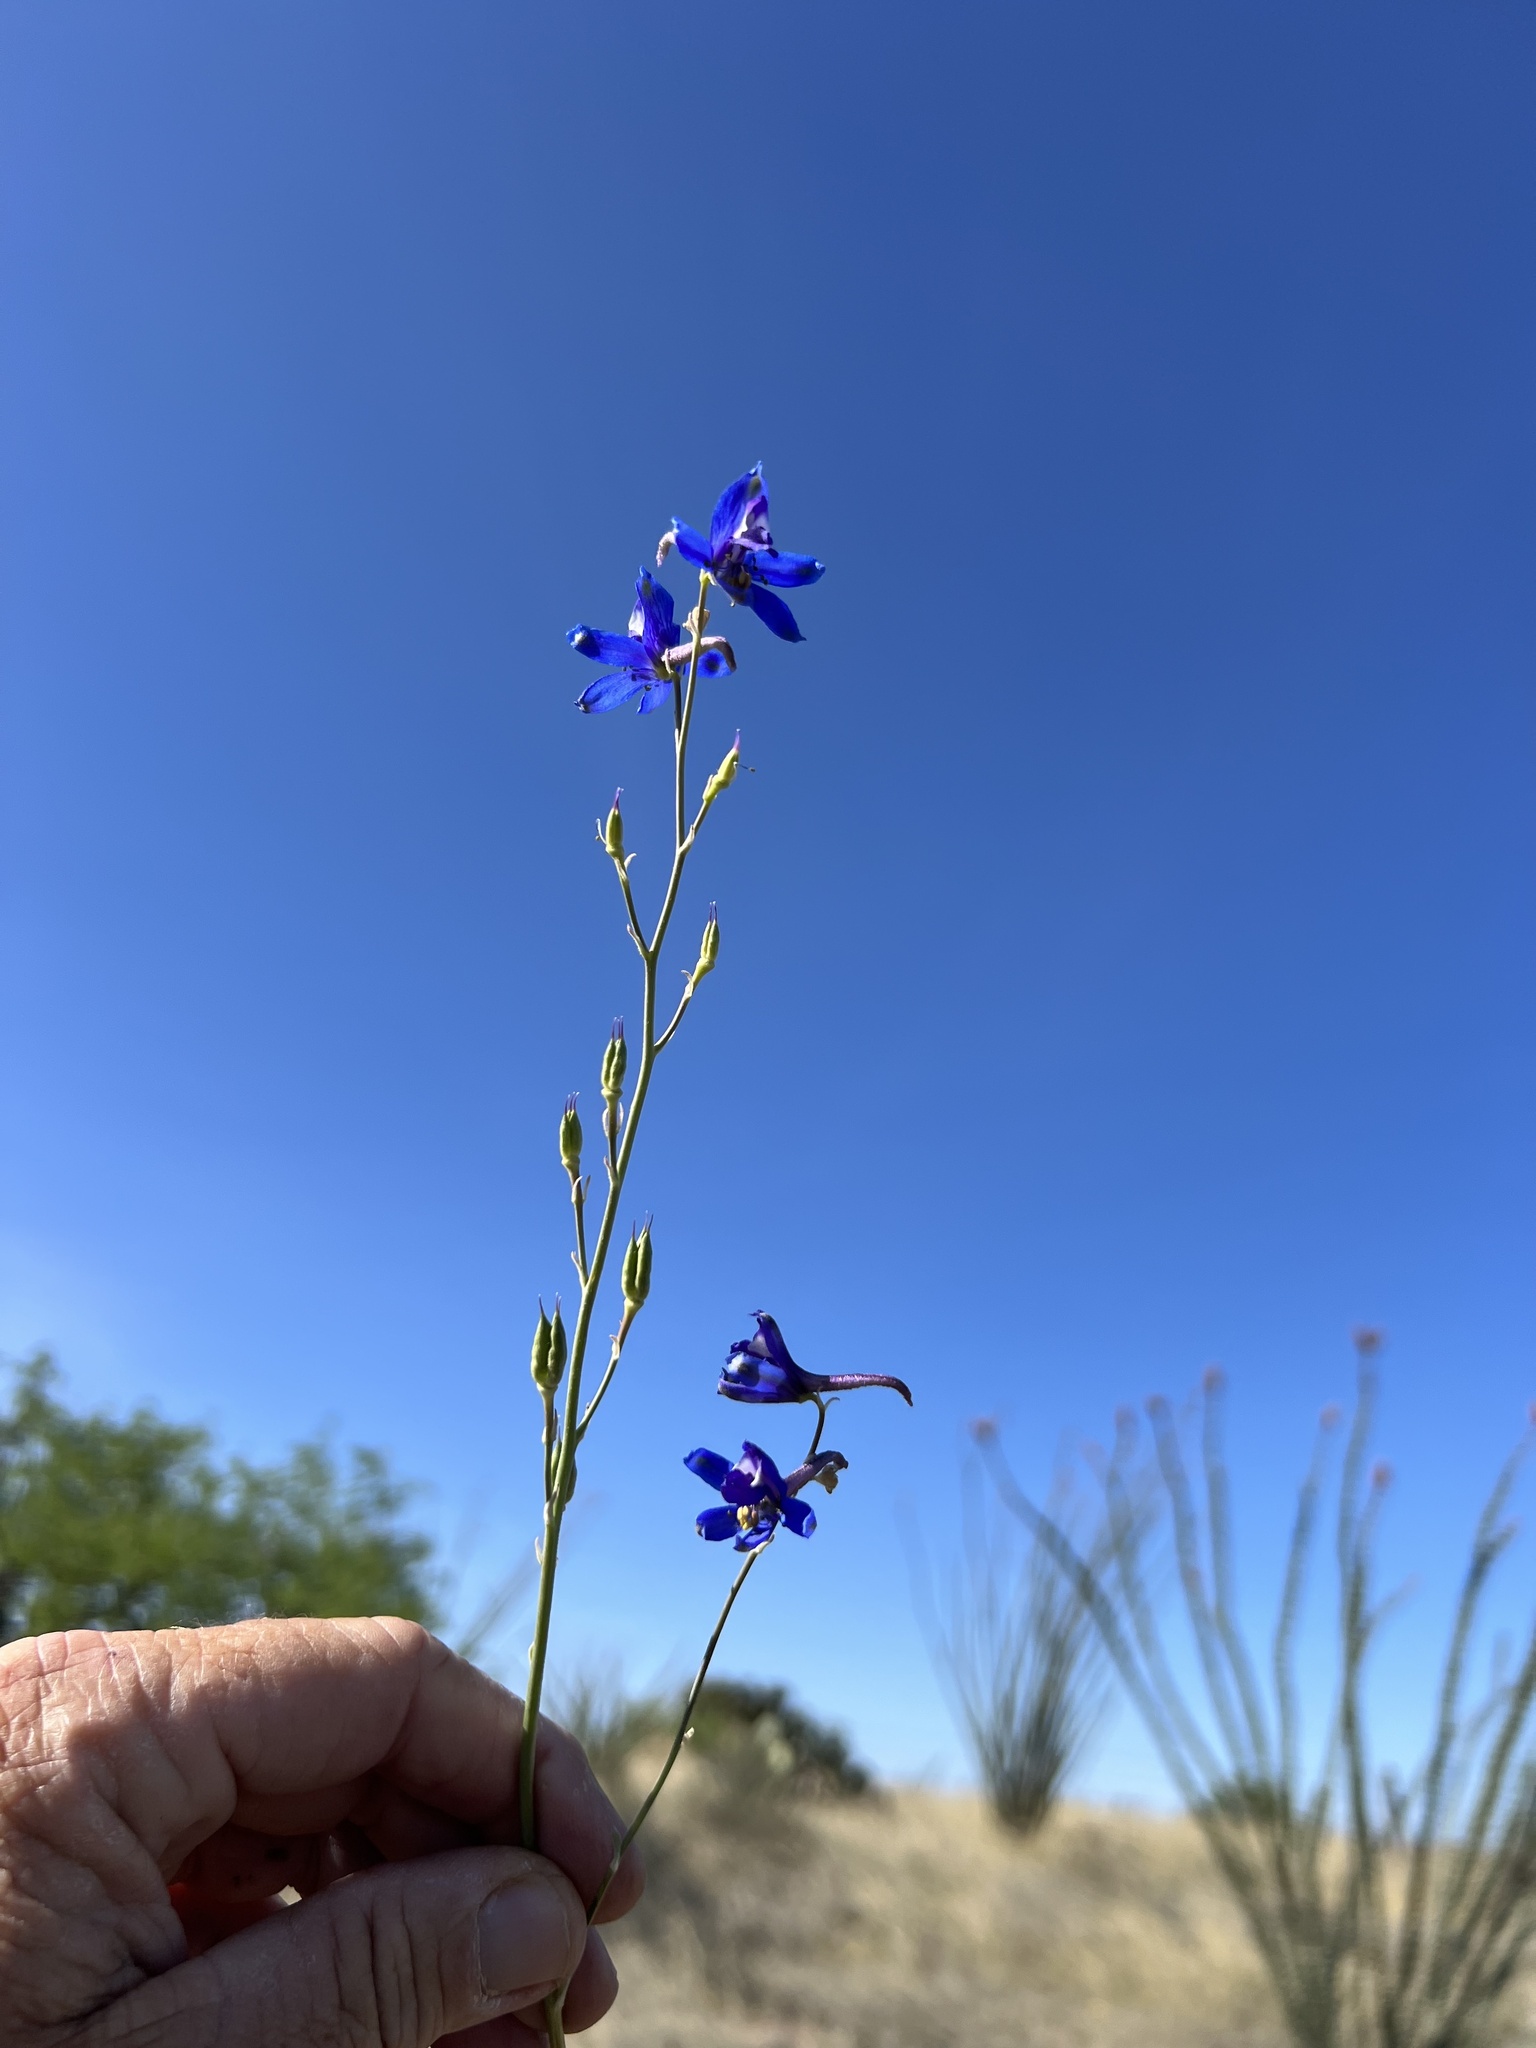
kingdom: Plantae
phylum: Tracheophyta
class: Magnoliopsida
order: Ranunculales
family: Ranunculaceae
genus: Delphinium
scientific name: Delphinium scaposum
